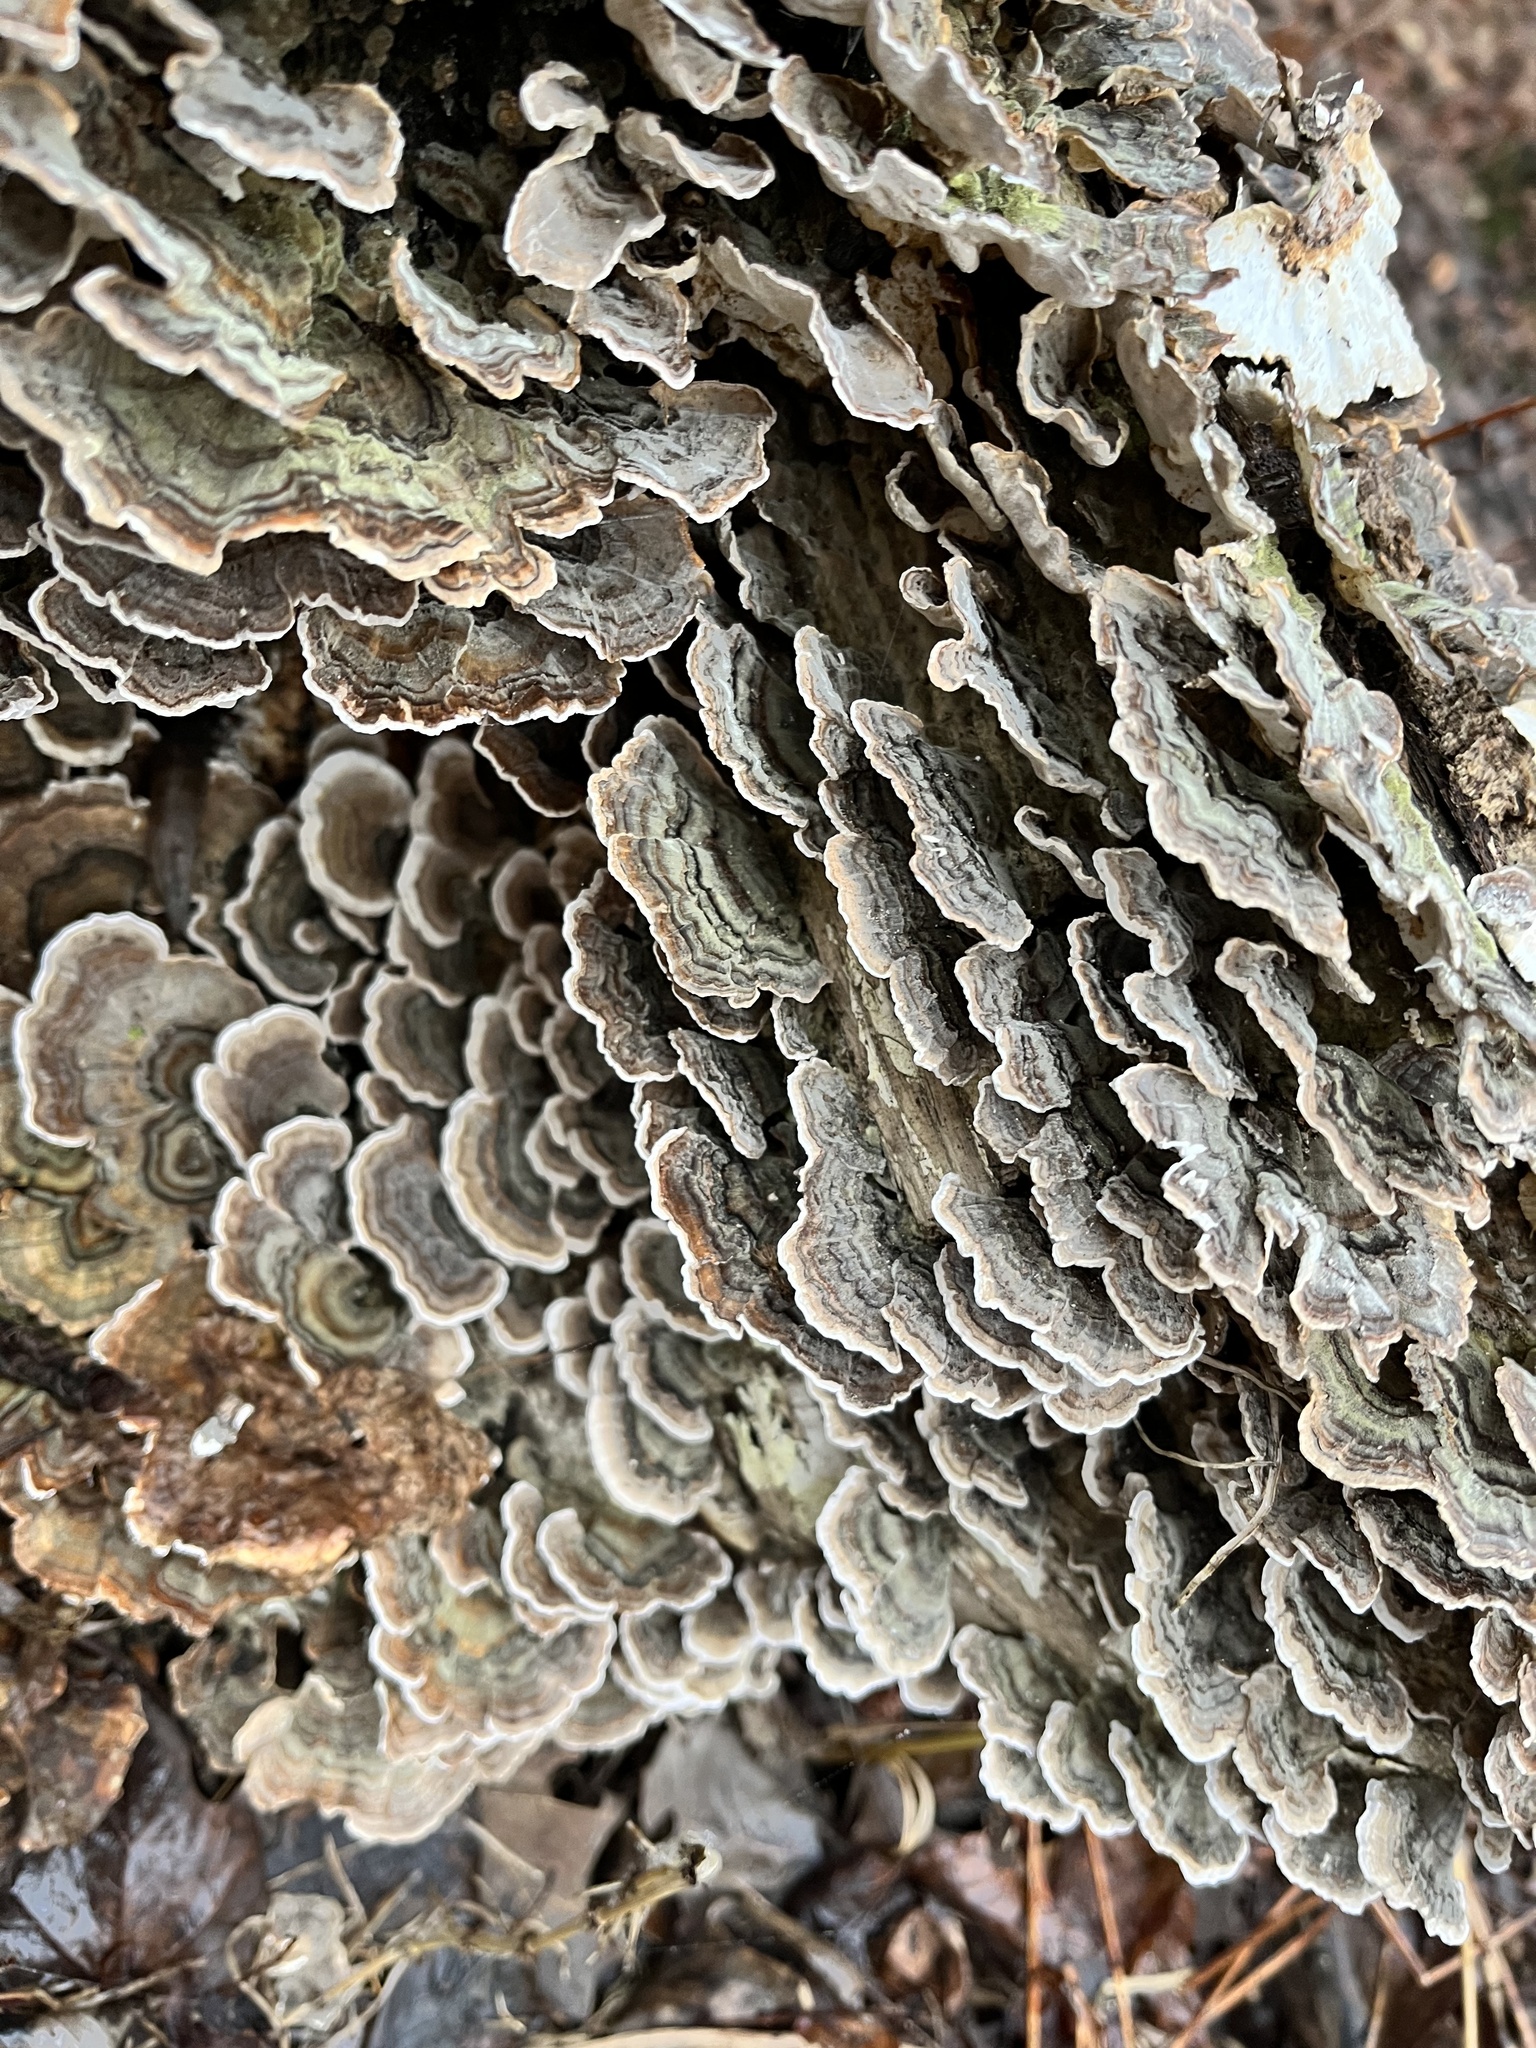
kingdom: Fungi
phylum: Basidiomycota
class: Agaricomycetes
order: Polyporales
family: Polyporaceae
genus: Trametes
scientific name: Trametes versicolor
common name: Turkeytail
